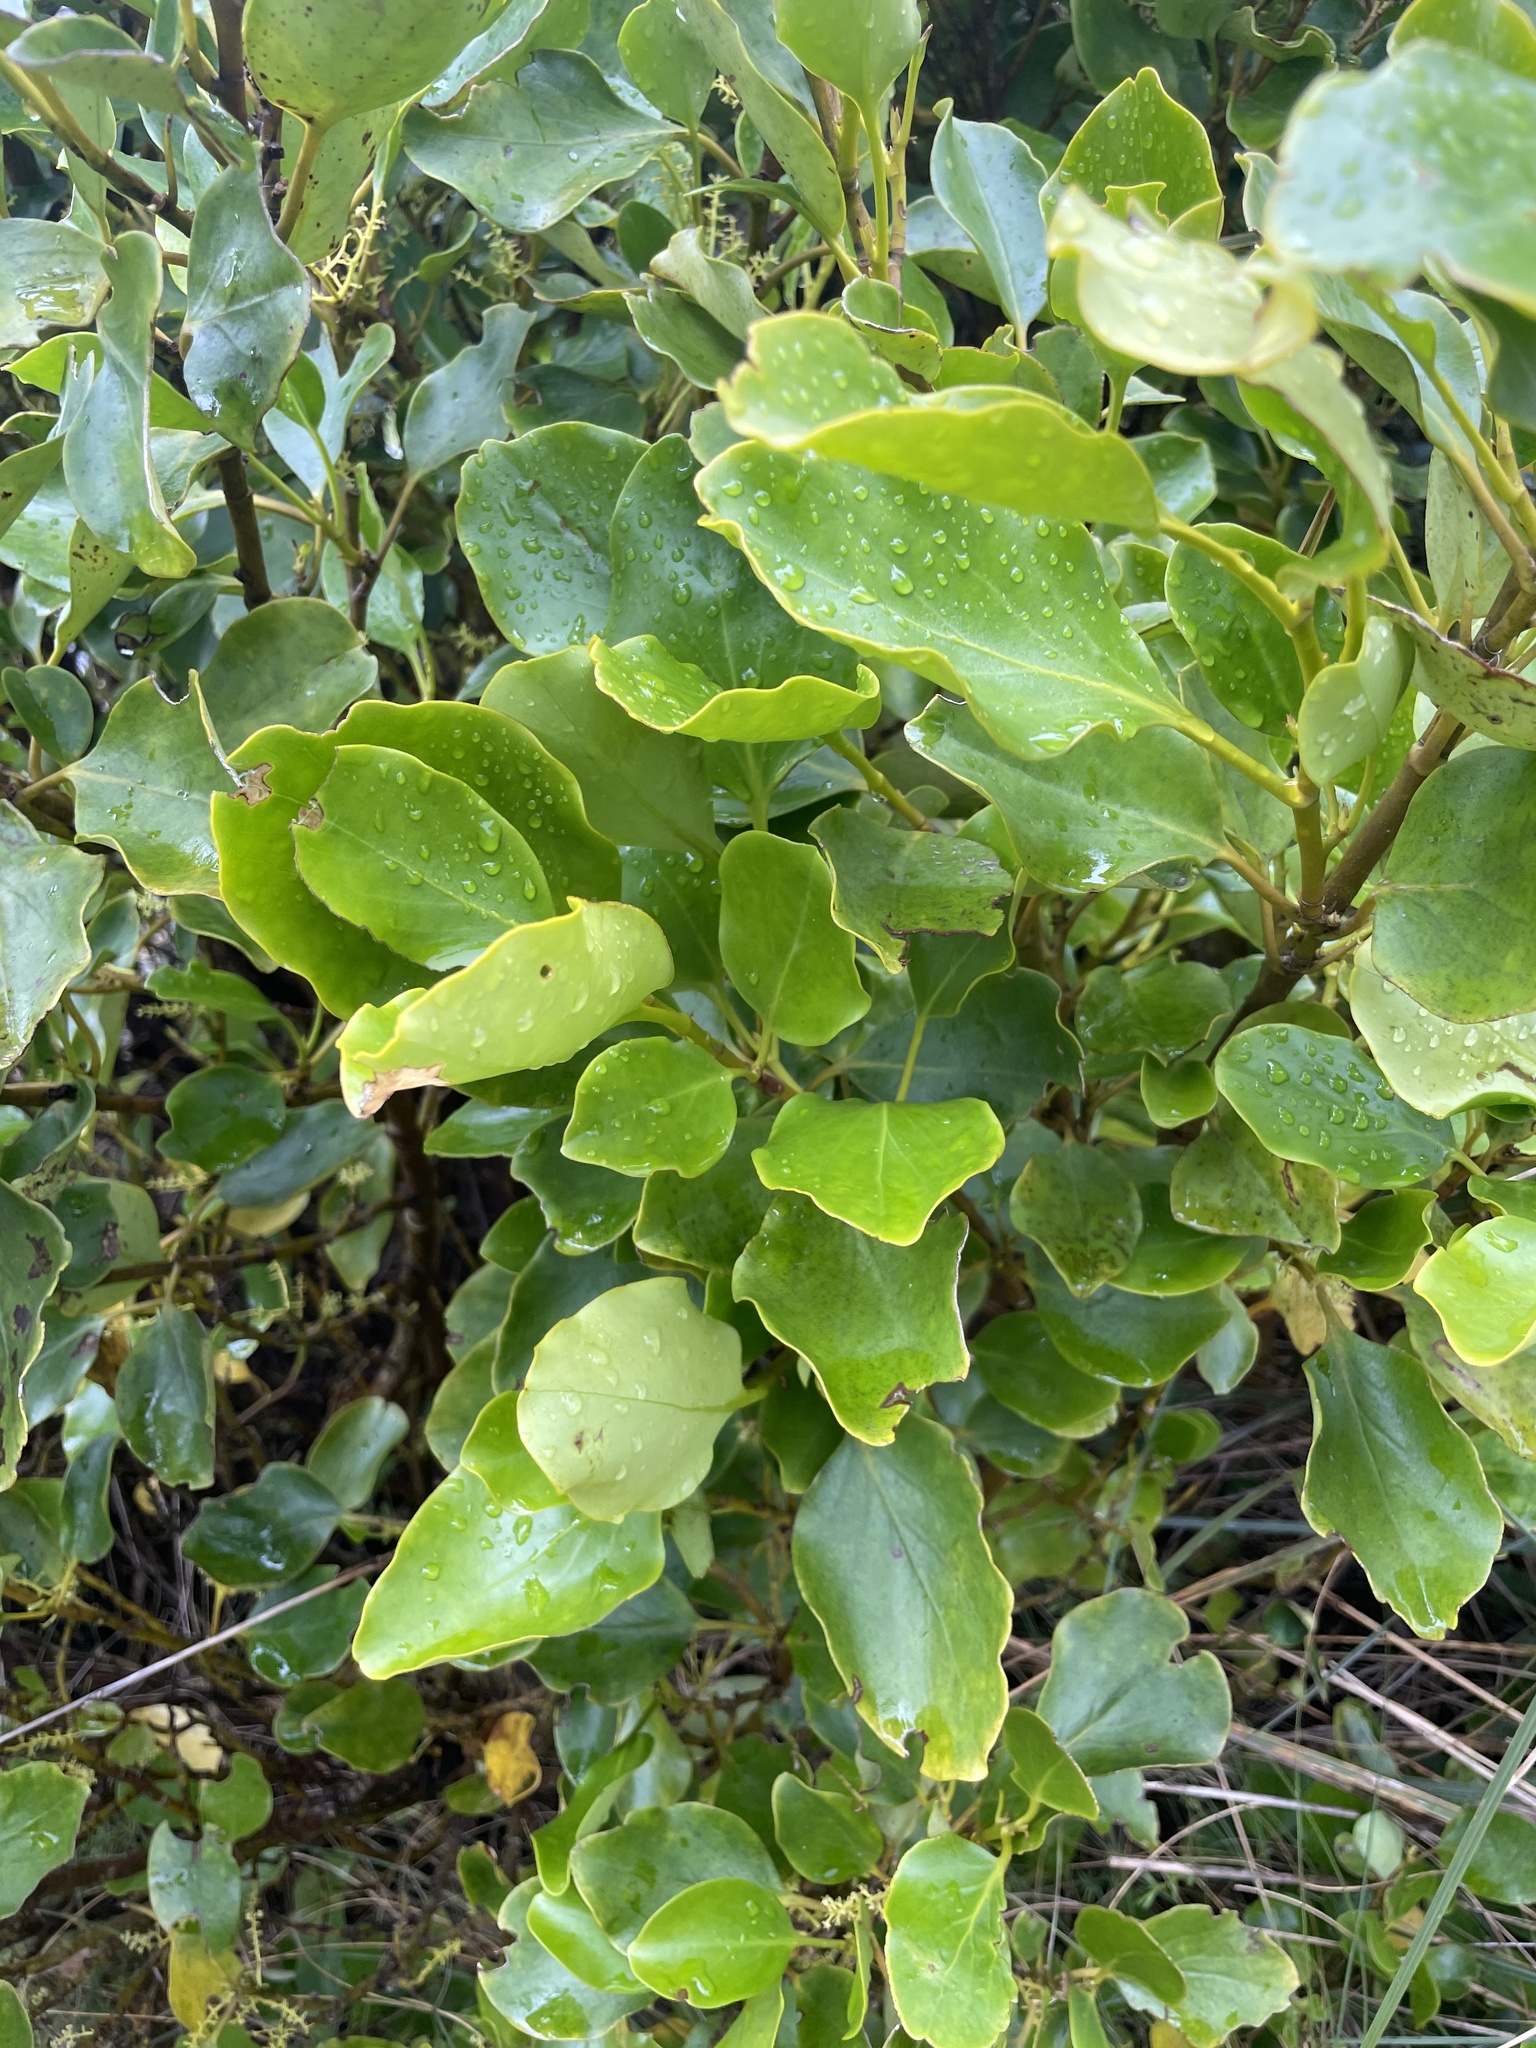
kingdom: Plantae
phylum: Tracheophyta
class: Magnoliopsida
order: Apiales
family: Griseliniaceae
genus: Griselinia
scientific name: Griselinia littoralis
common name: New zealand broadleaf
